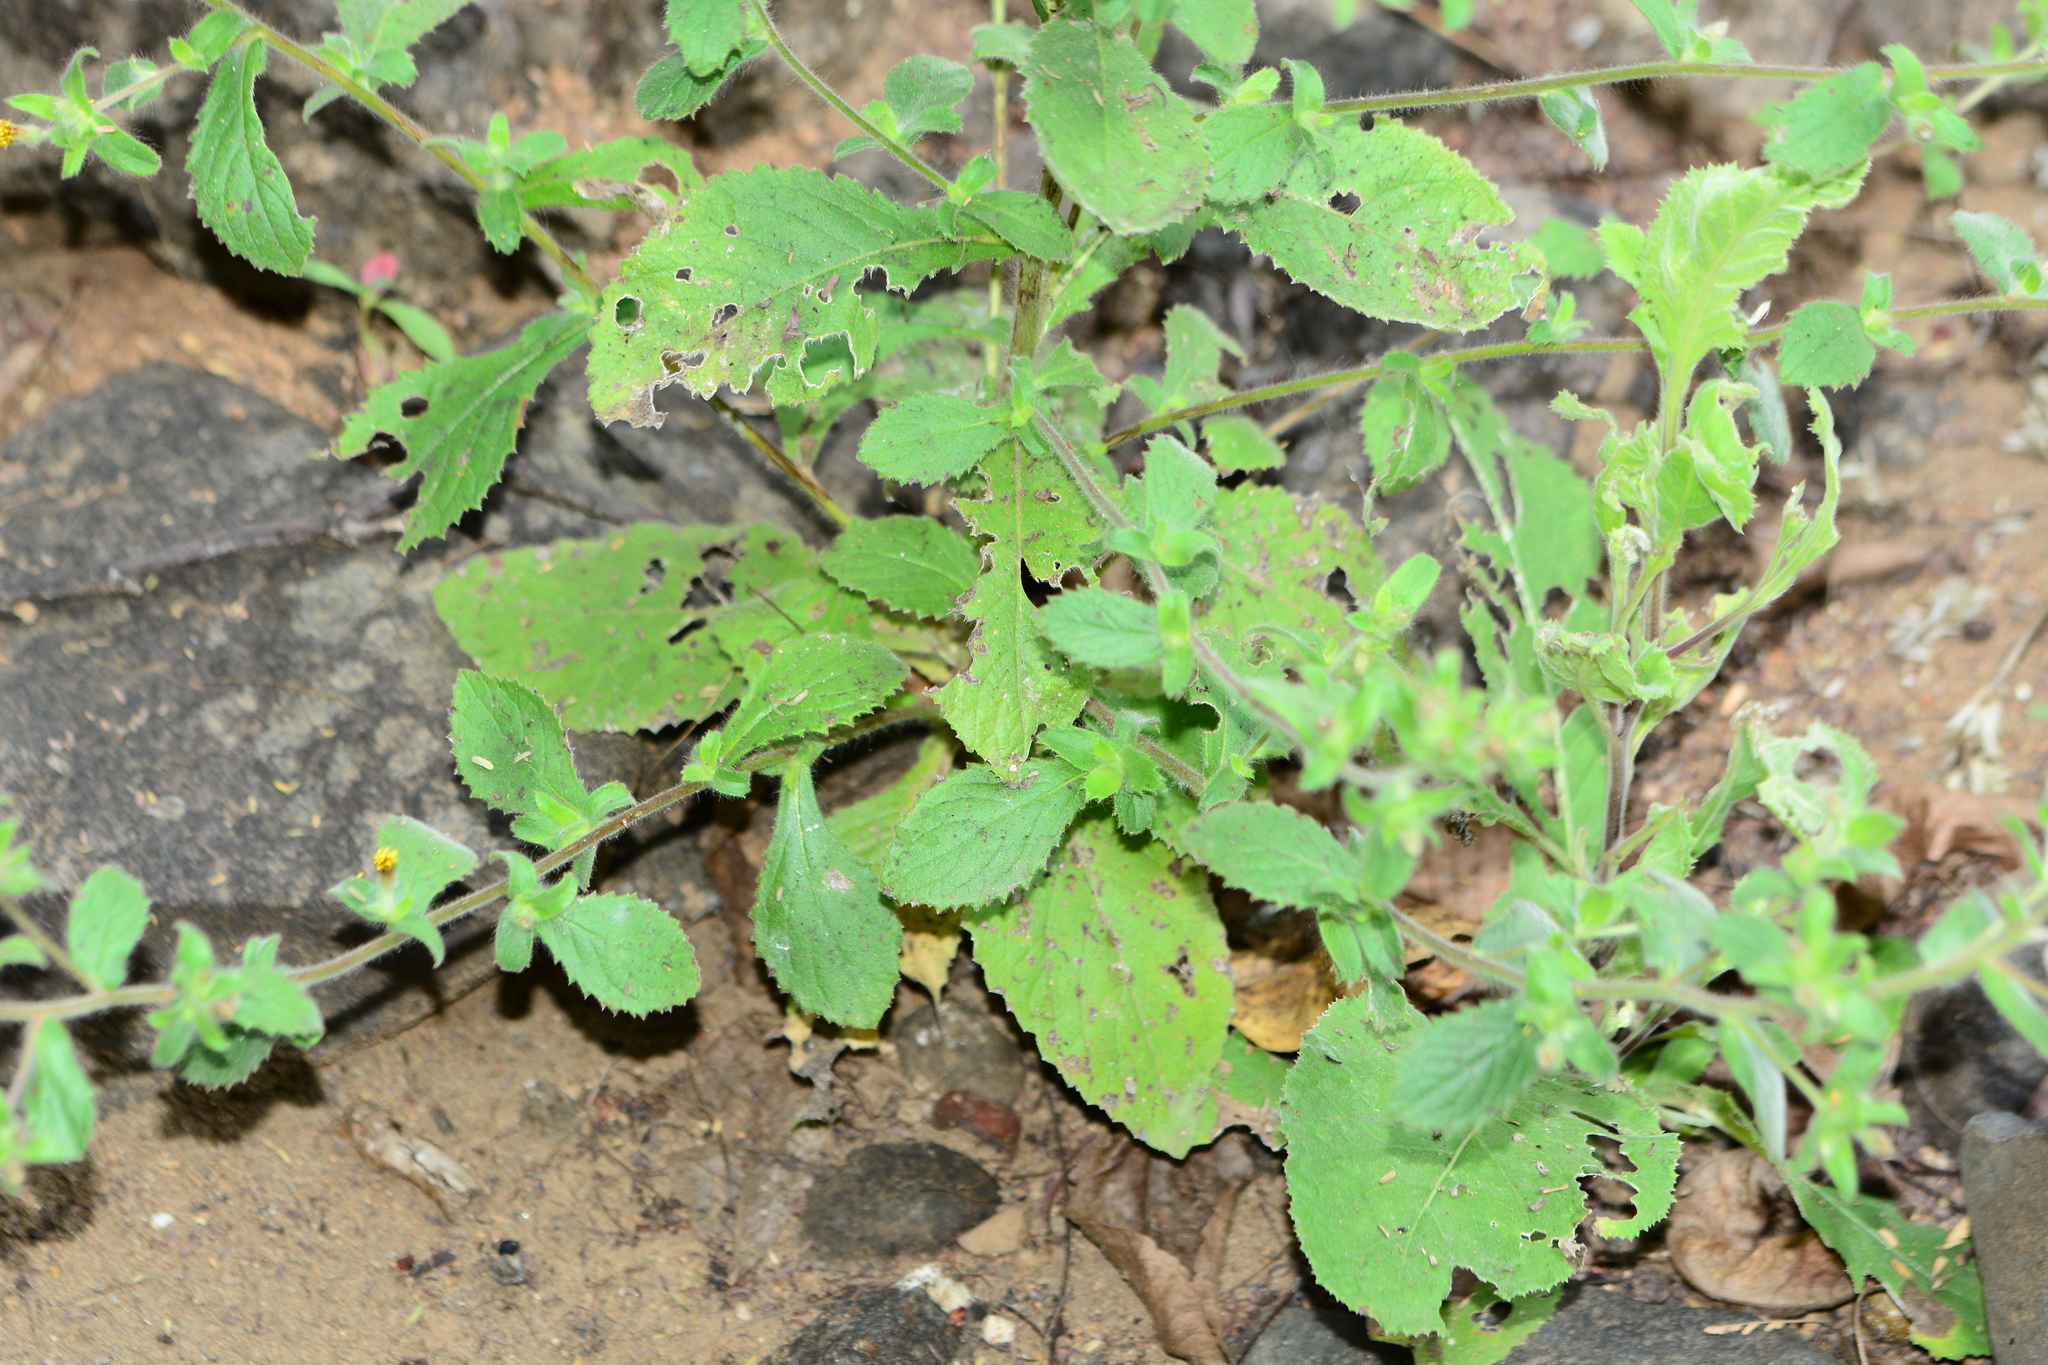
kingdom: Plantae
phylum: Tracheophyta
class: Magnoliopsida
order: Asterales
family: Asteraceae
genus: Blumea
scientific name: Blumea belangeriana
